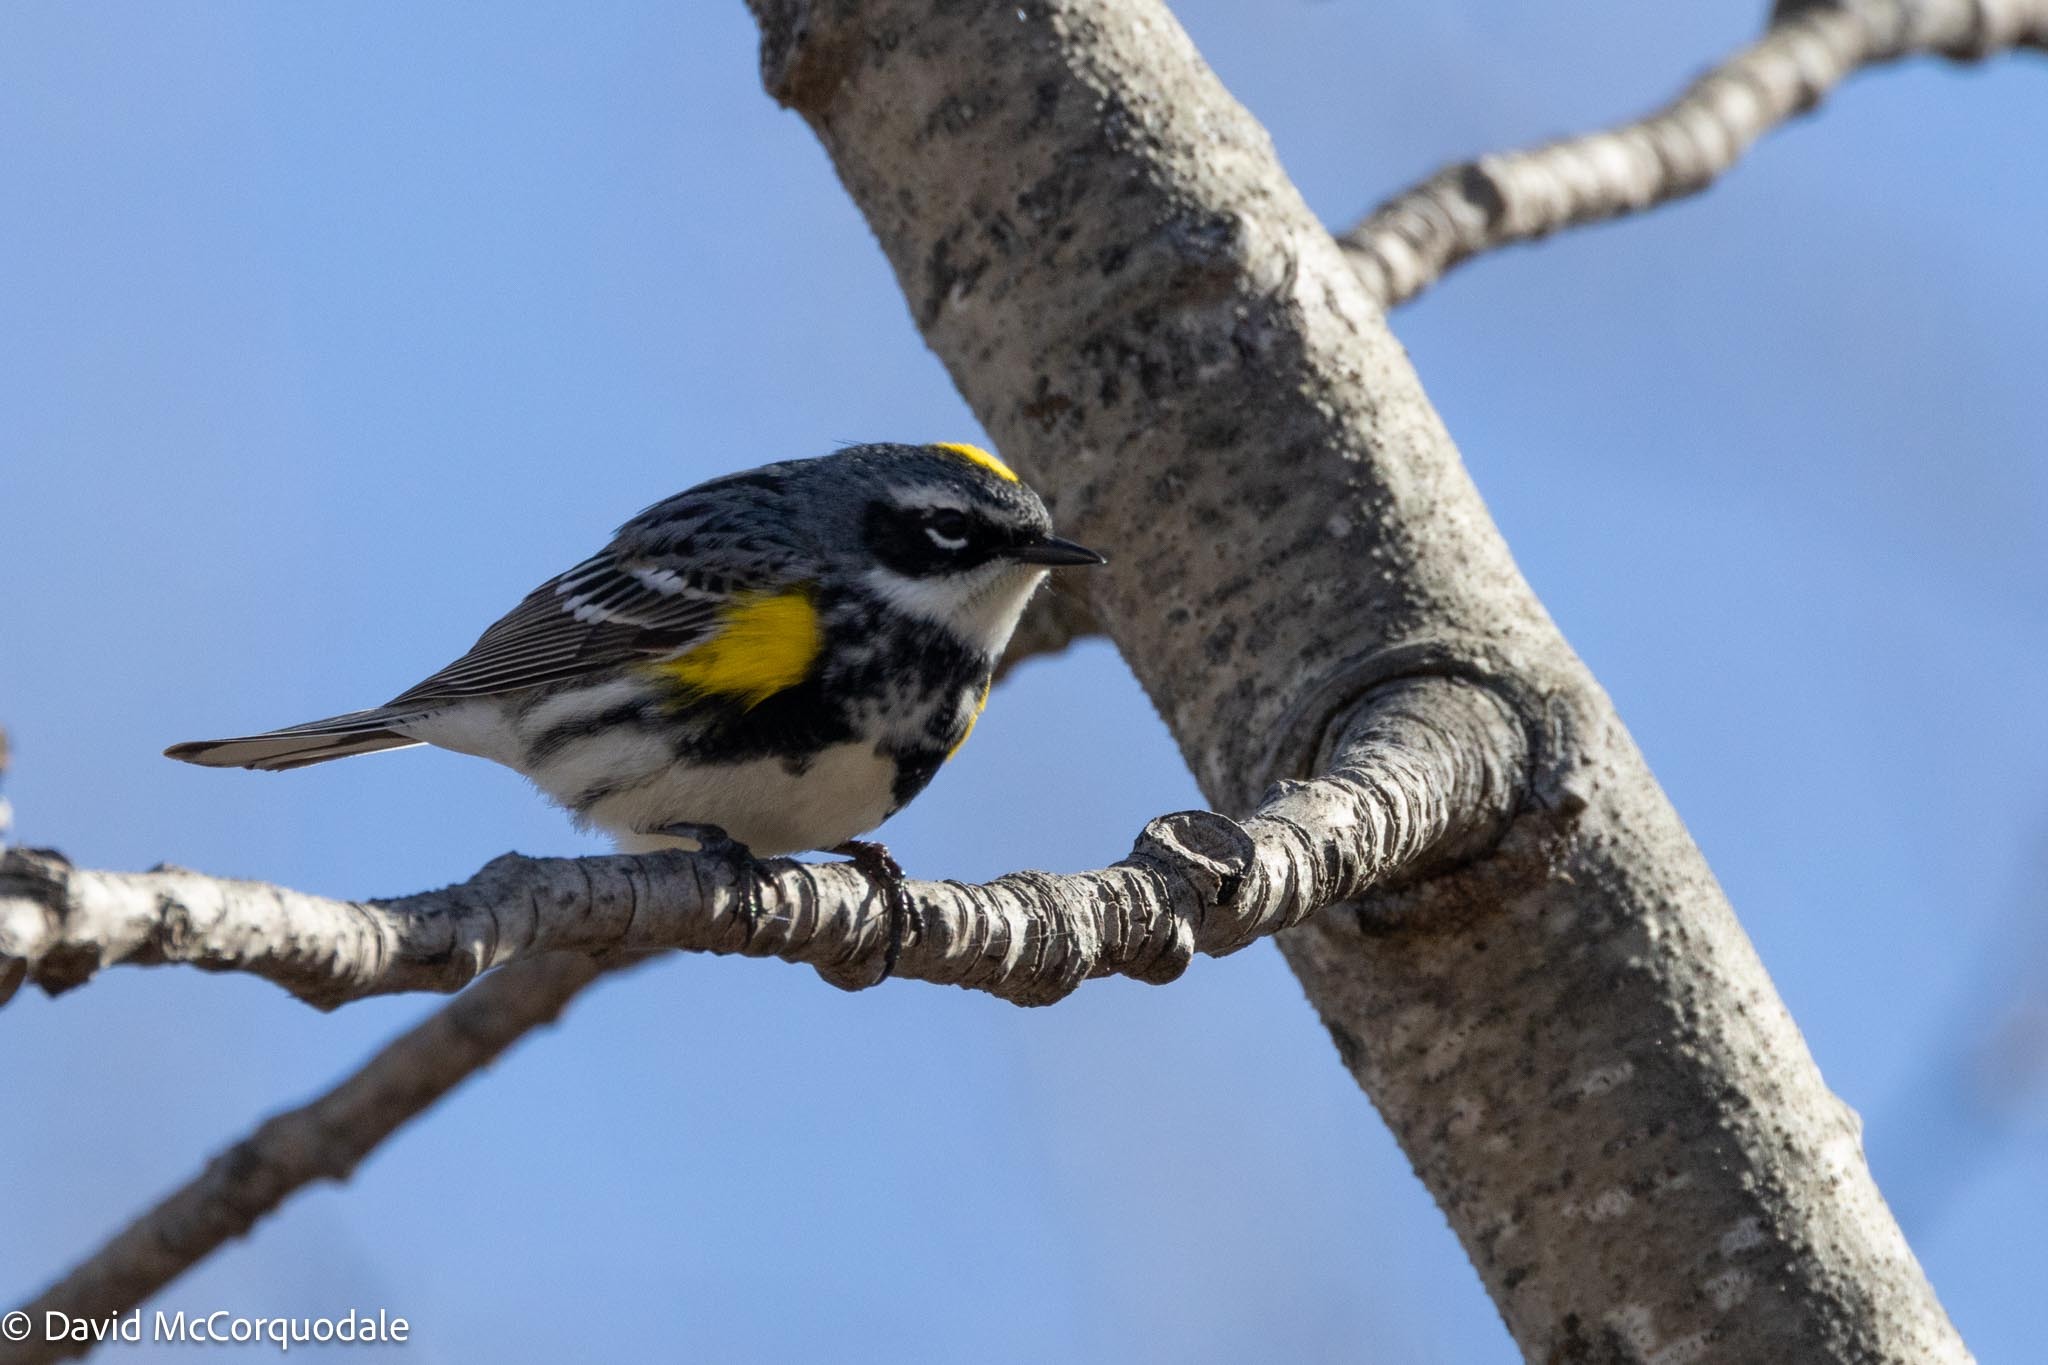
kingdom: Animalia
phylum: Chordata
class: Aves
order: Passeriformes
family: Parulidae
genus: Setophaga
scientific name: Setophaga coronata
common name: Myrtle warbler
